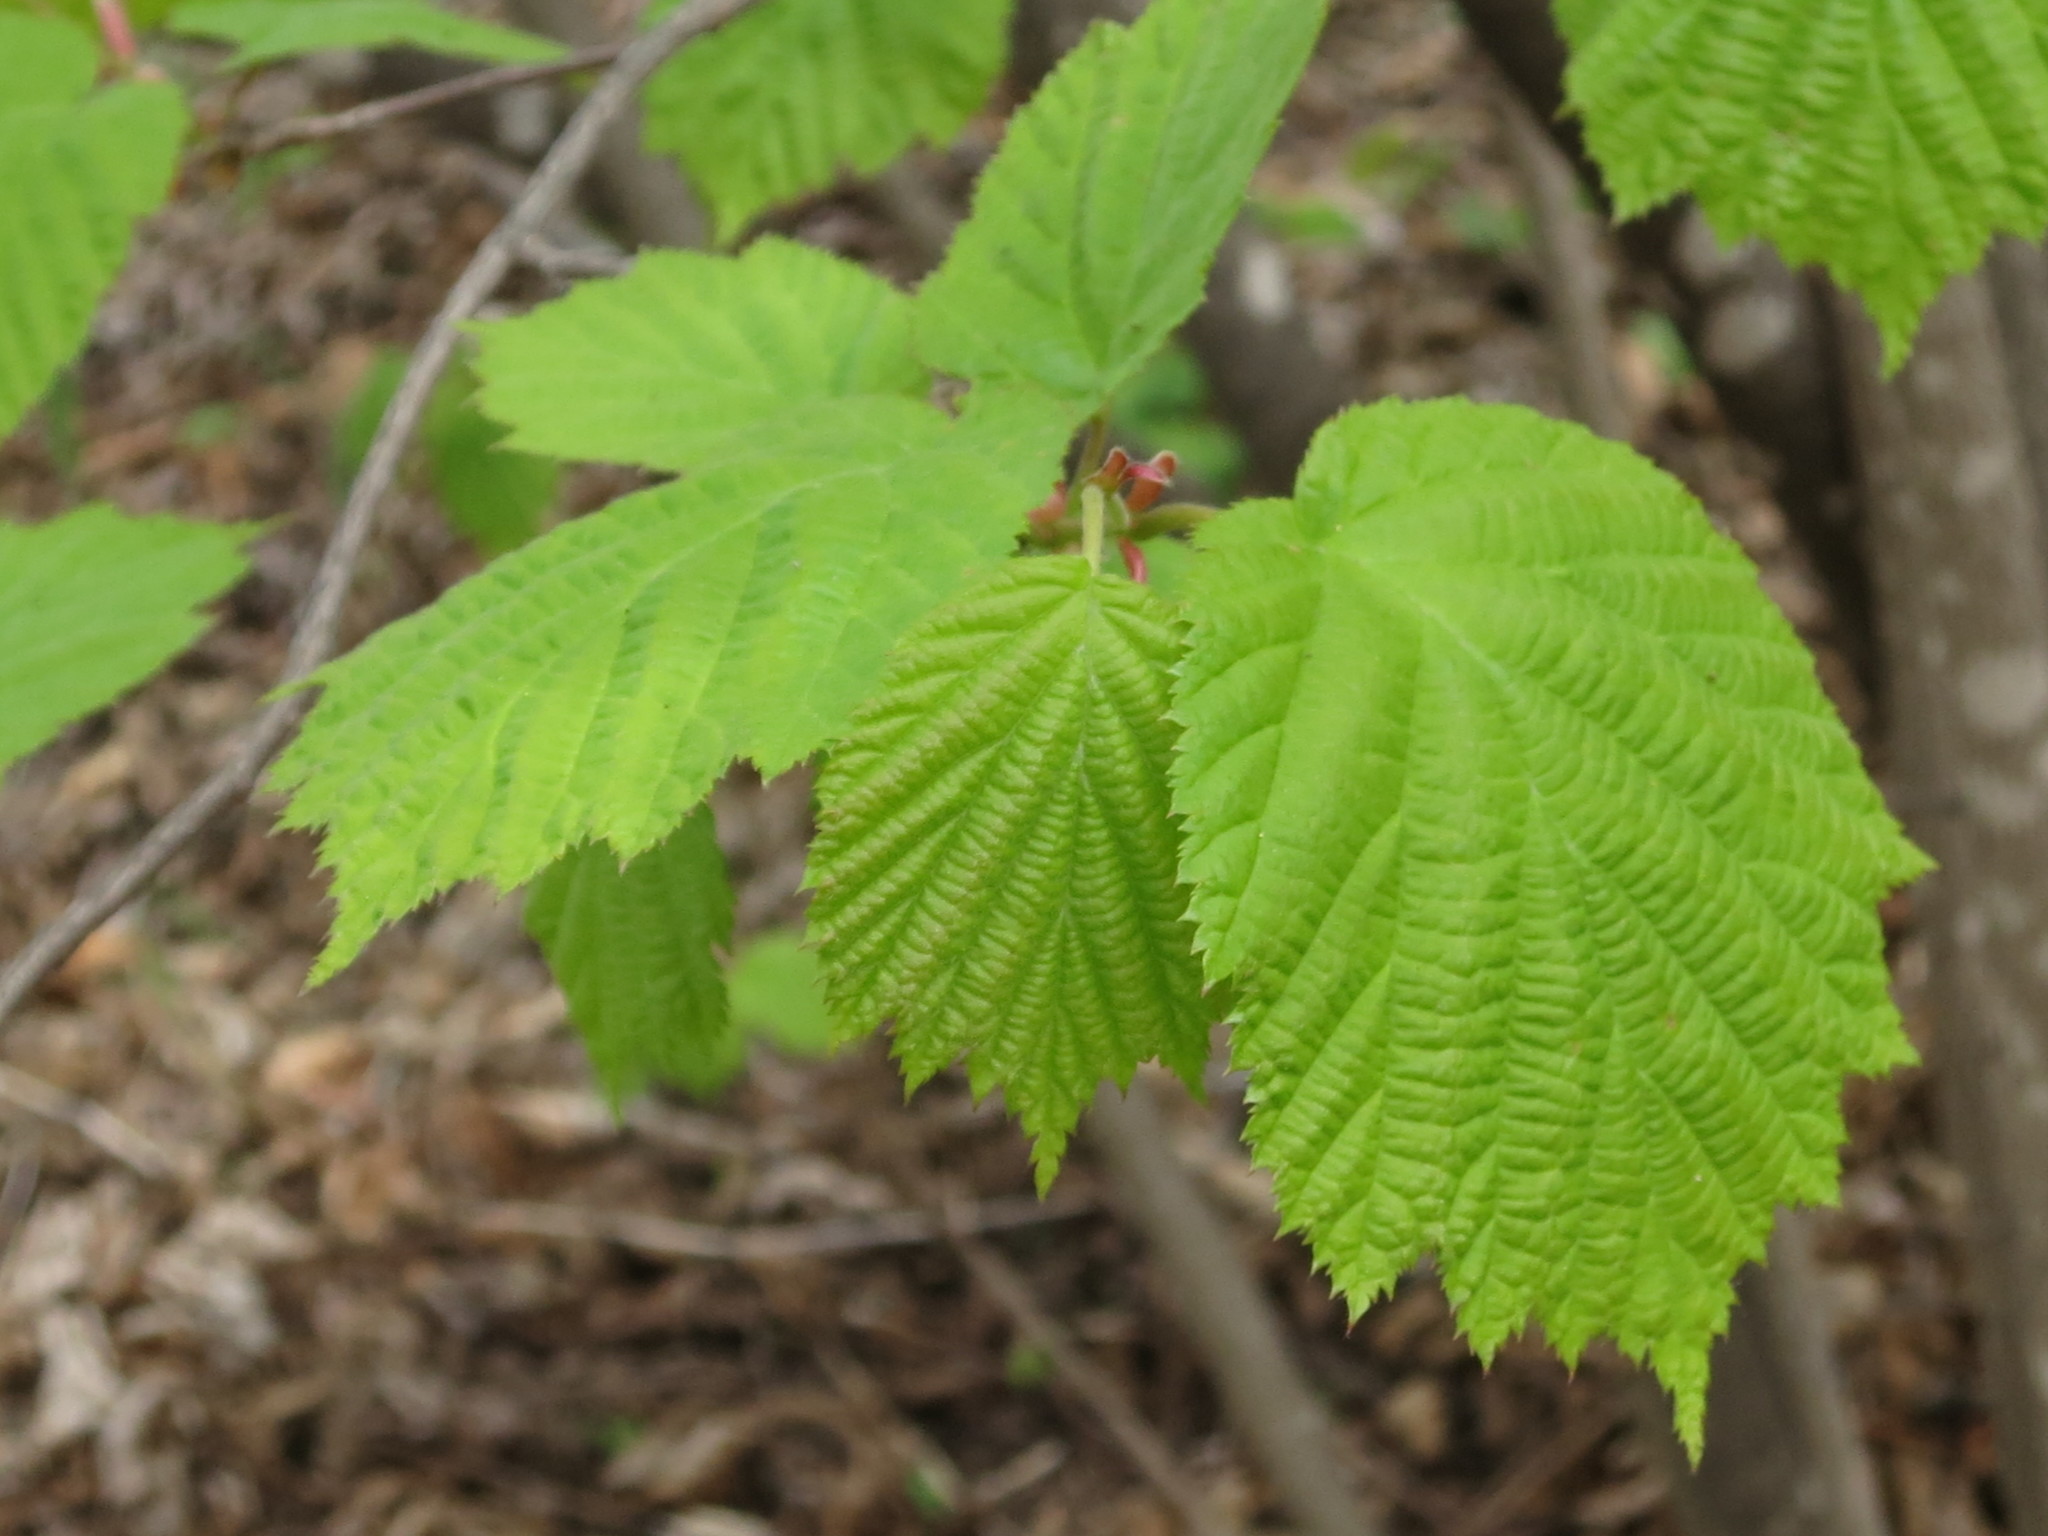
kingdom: Plantae
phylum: Tracheophyta
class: Magnoliopsida
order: Fagales
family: Betulaceae
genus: Corylus
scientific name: Corylus sieboldiana
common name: Japanese hazel
